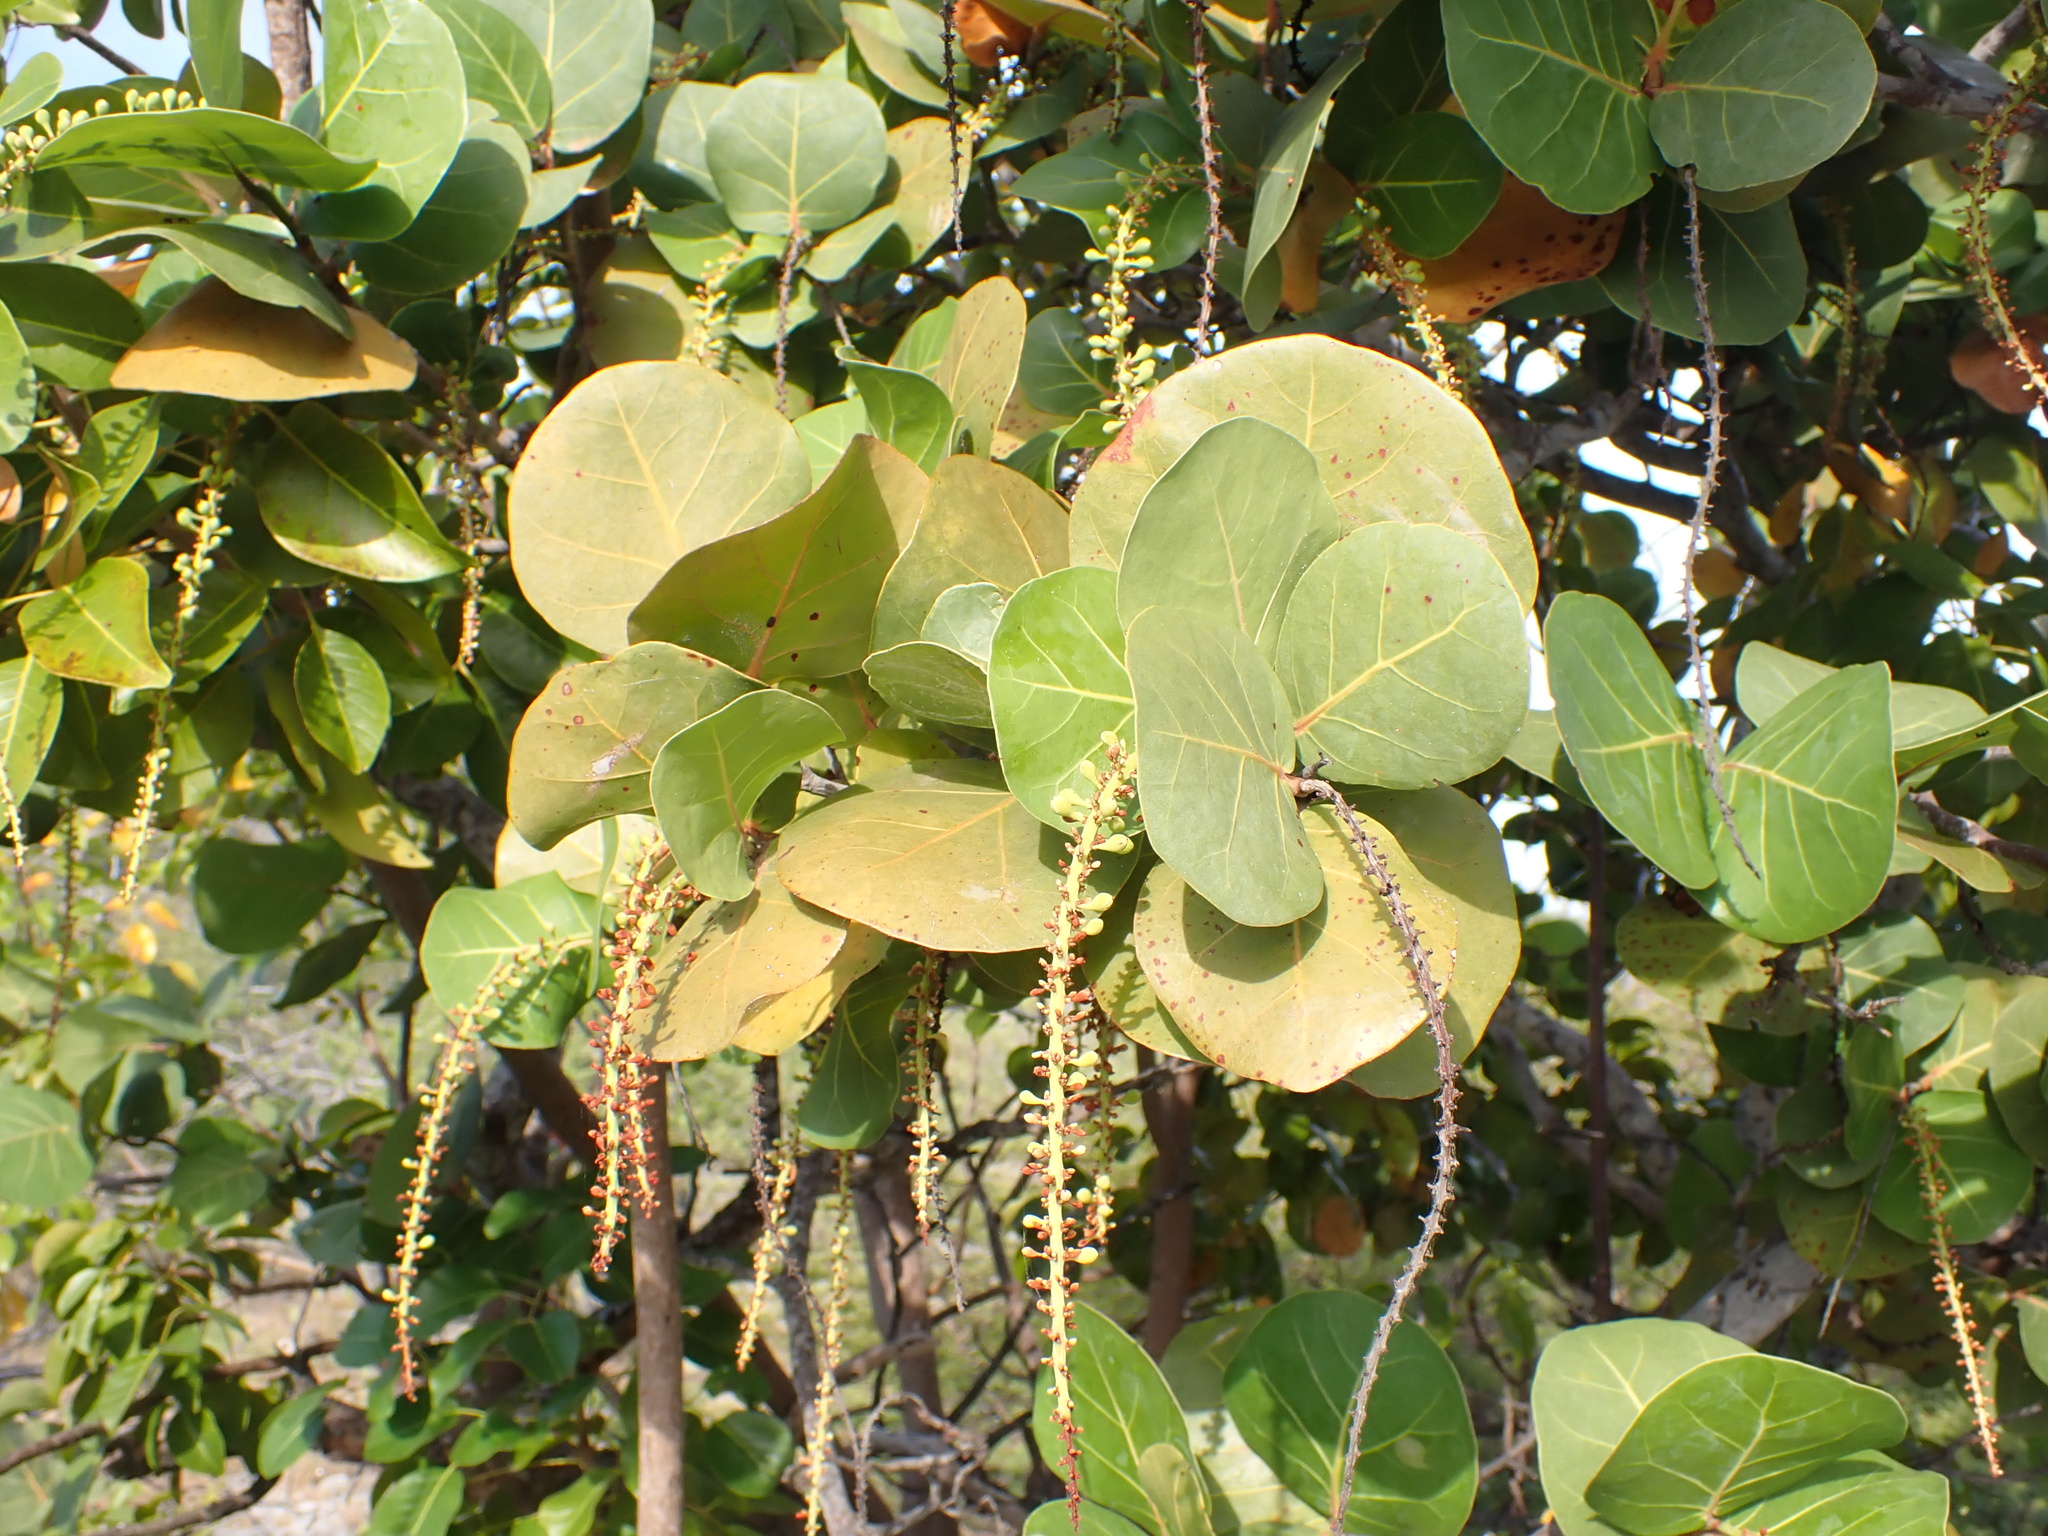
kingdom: Plantae
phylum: Tracheophyta
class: Magnoliopsida
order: Caryophyllales
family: Polygonaceae
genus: Coccoloba
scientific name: Coccoloba uvifera
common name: Seagrape
